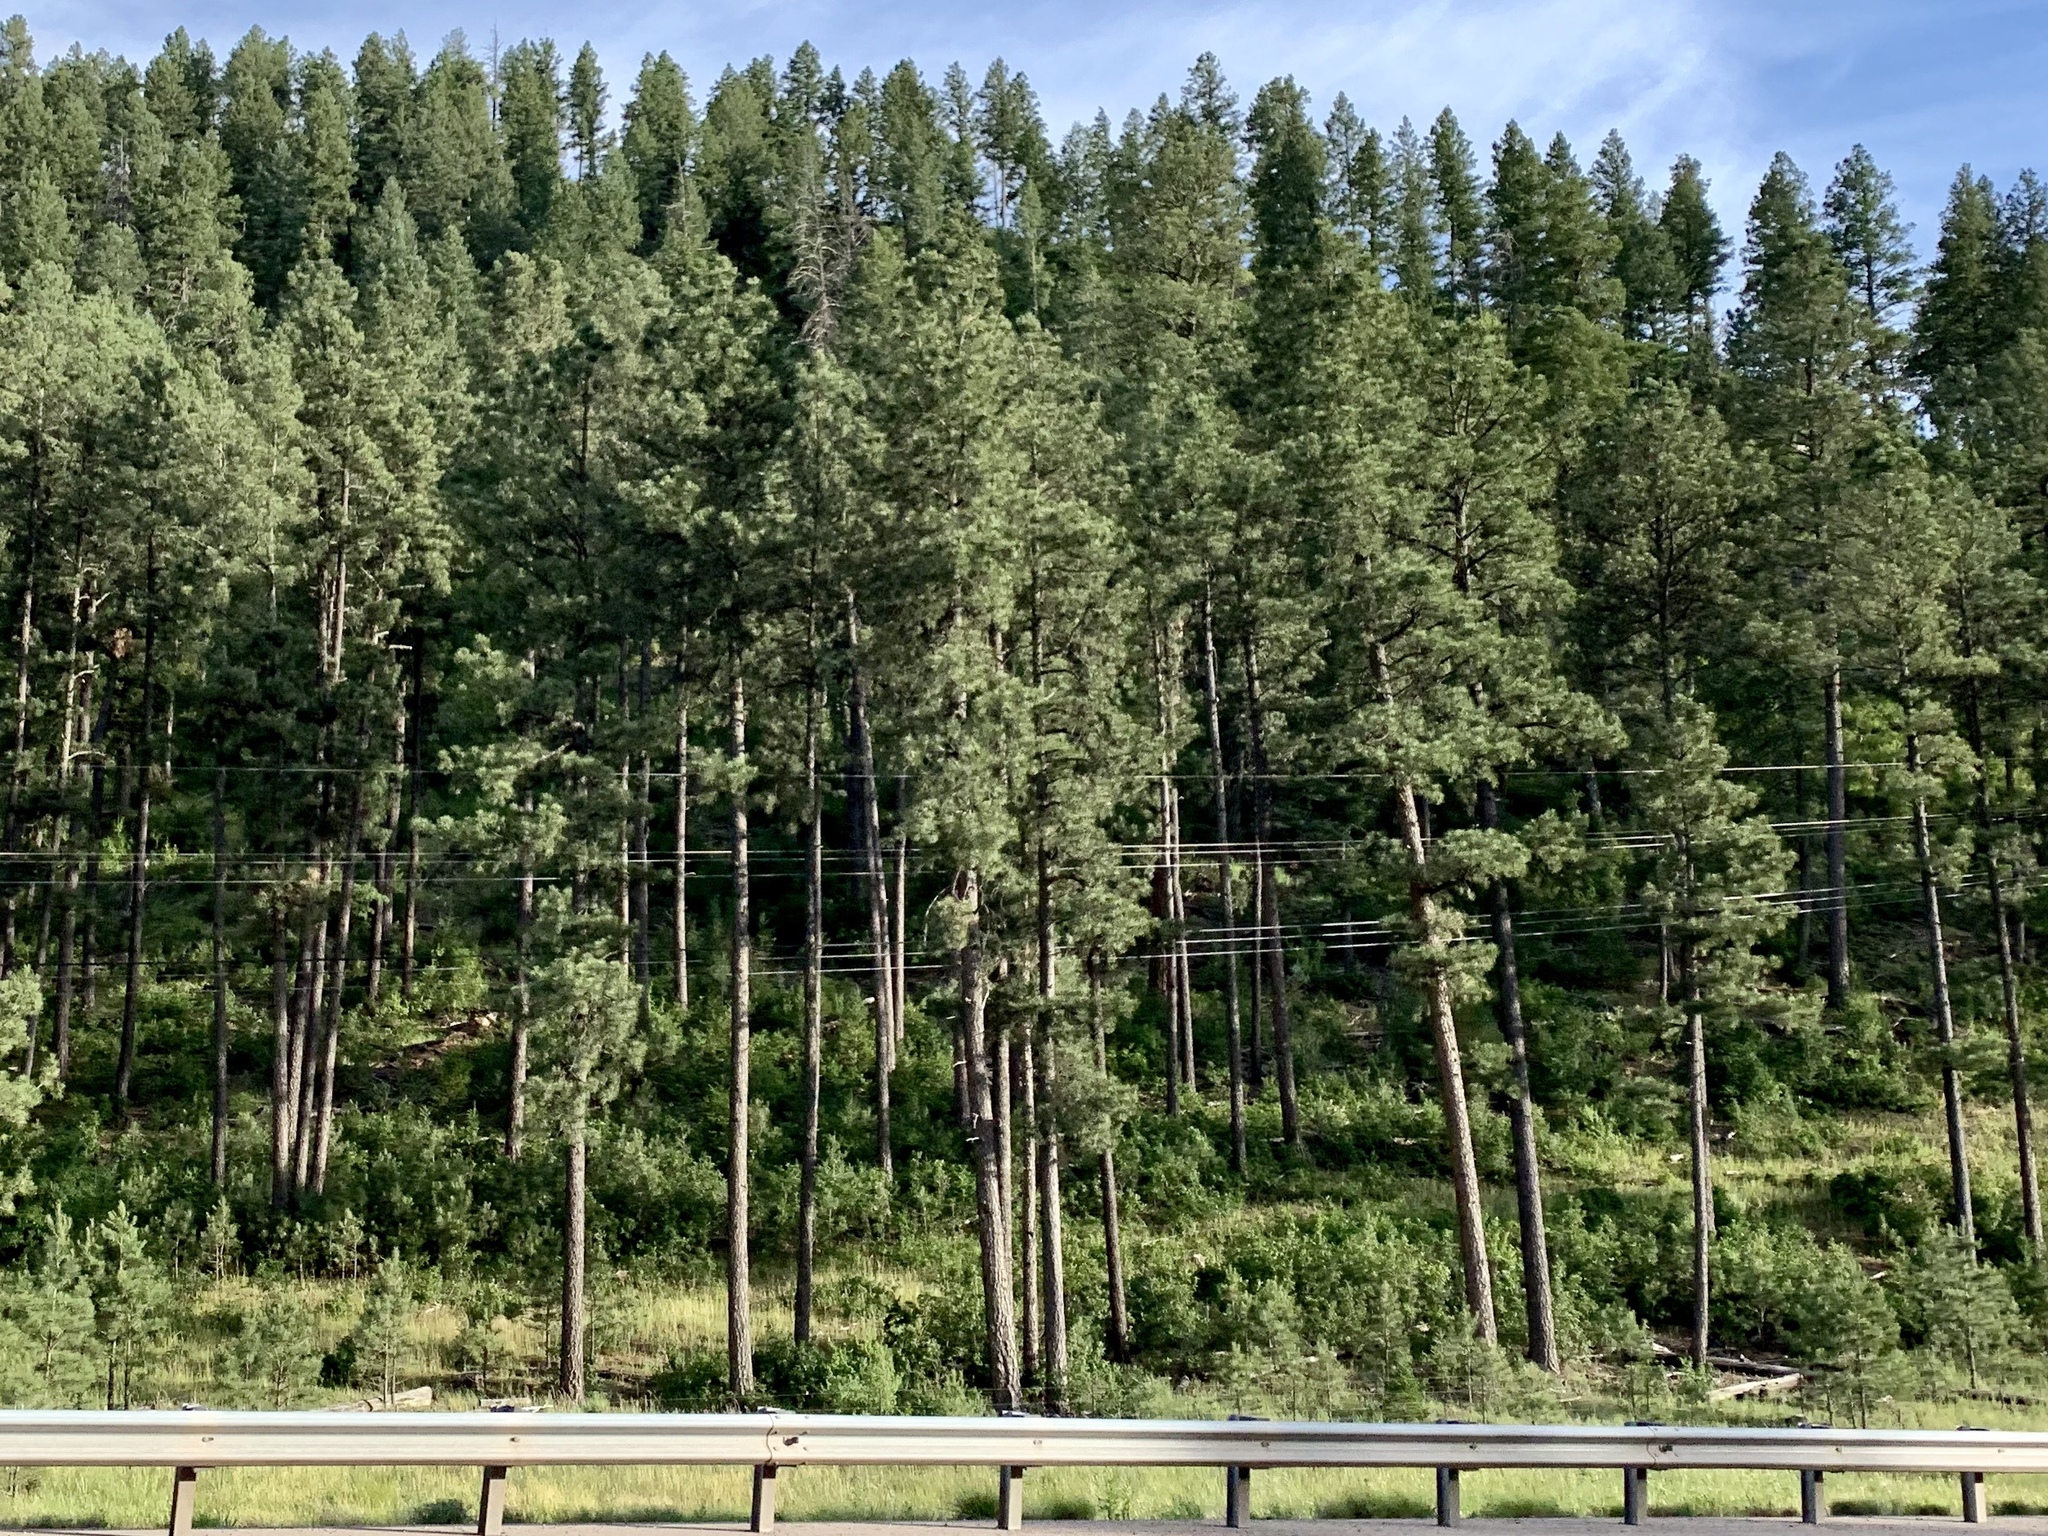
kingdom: Plantae
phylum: Tracheophyta
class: Pinopsida
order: Pinales
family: Pinaceae
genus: Pinus
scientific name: Pinus ponderosa
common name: Western yellow-pine
